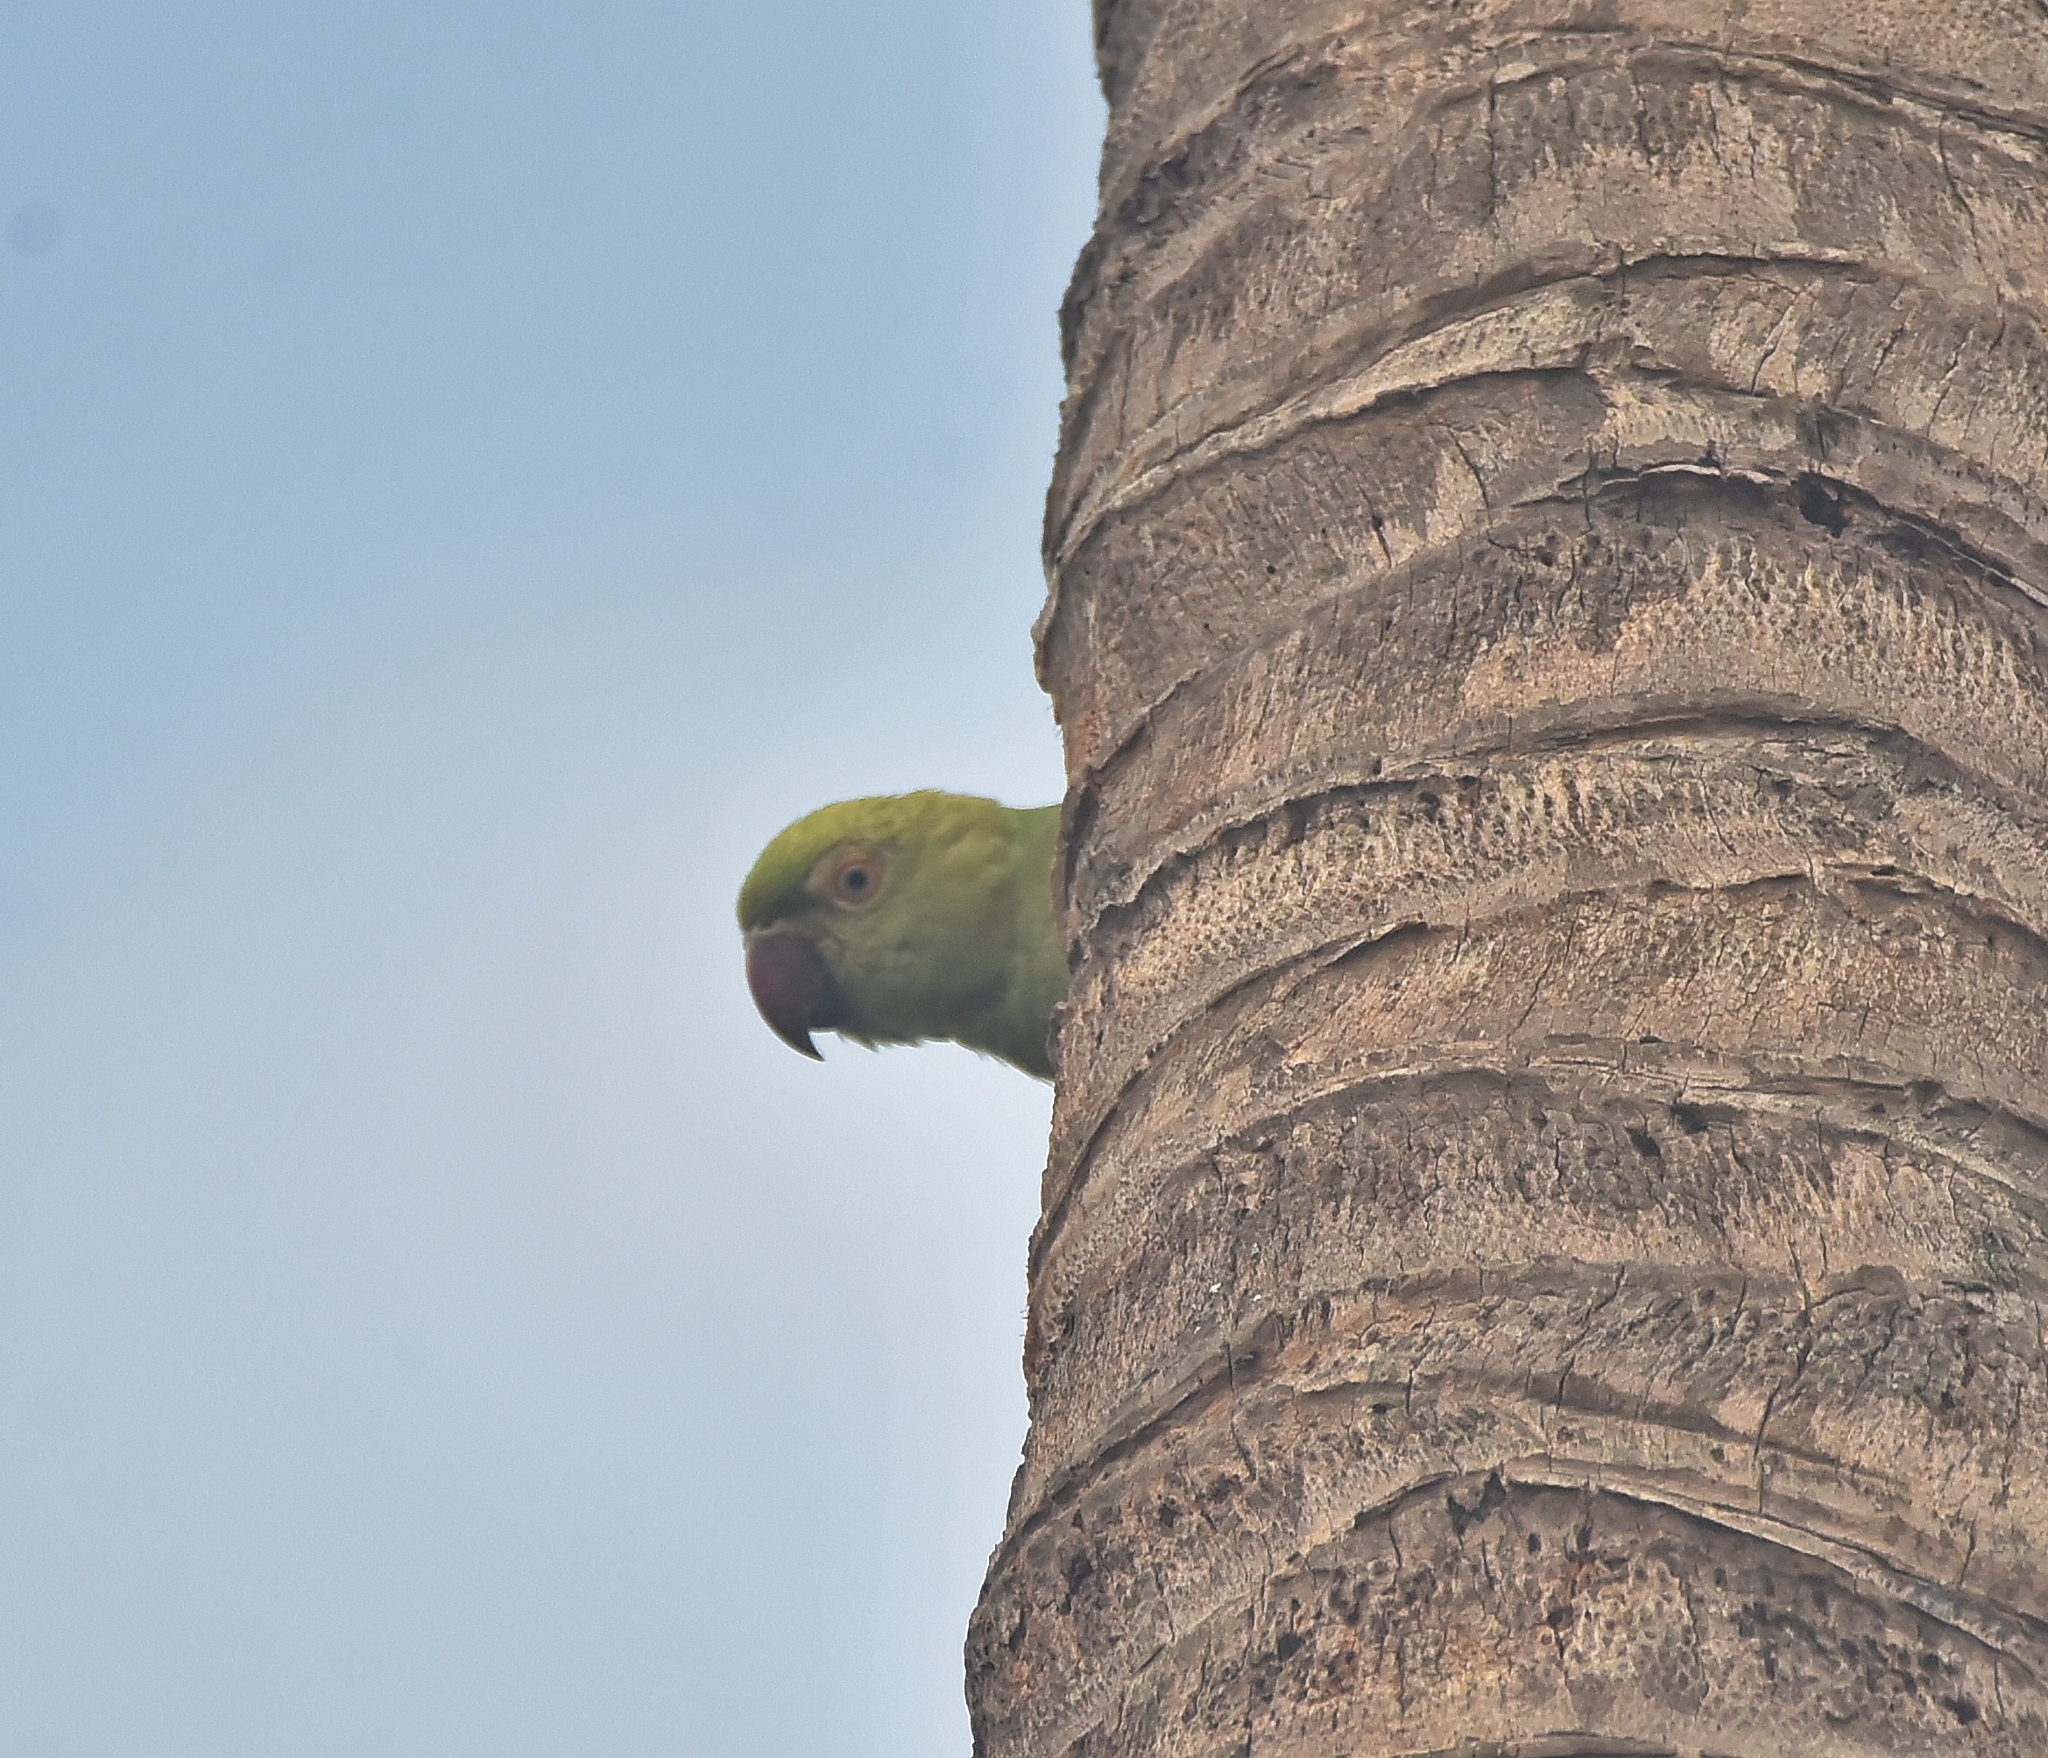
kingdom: Animalia
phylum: Chordata
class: Aves
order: Psittaciformes
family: Psittacidae
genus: Psittacula
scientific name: Psittacula krameri
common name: Rose-ringed parakeet
